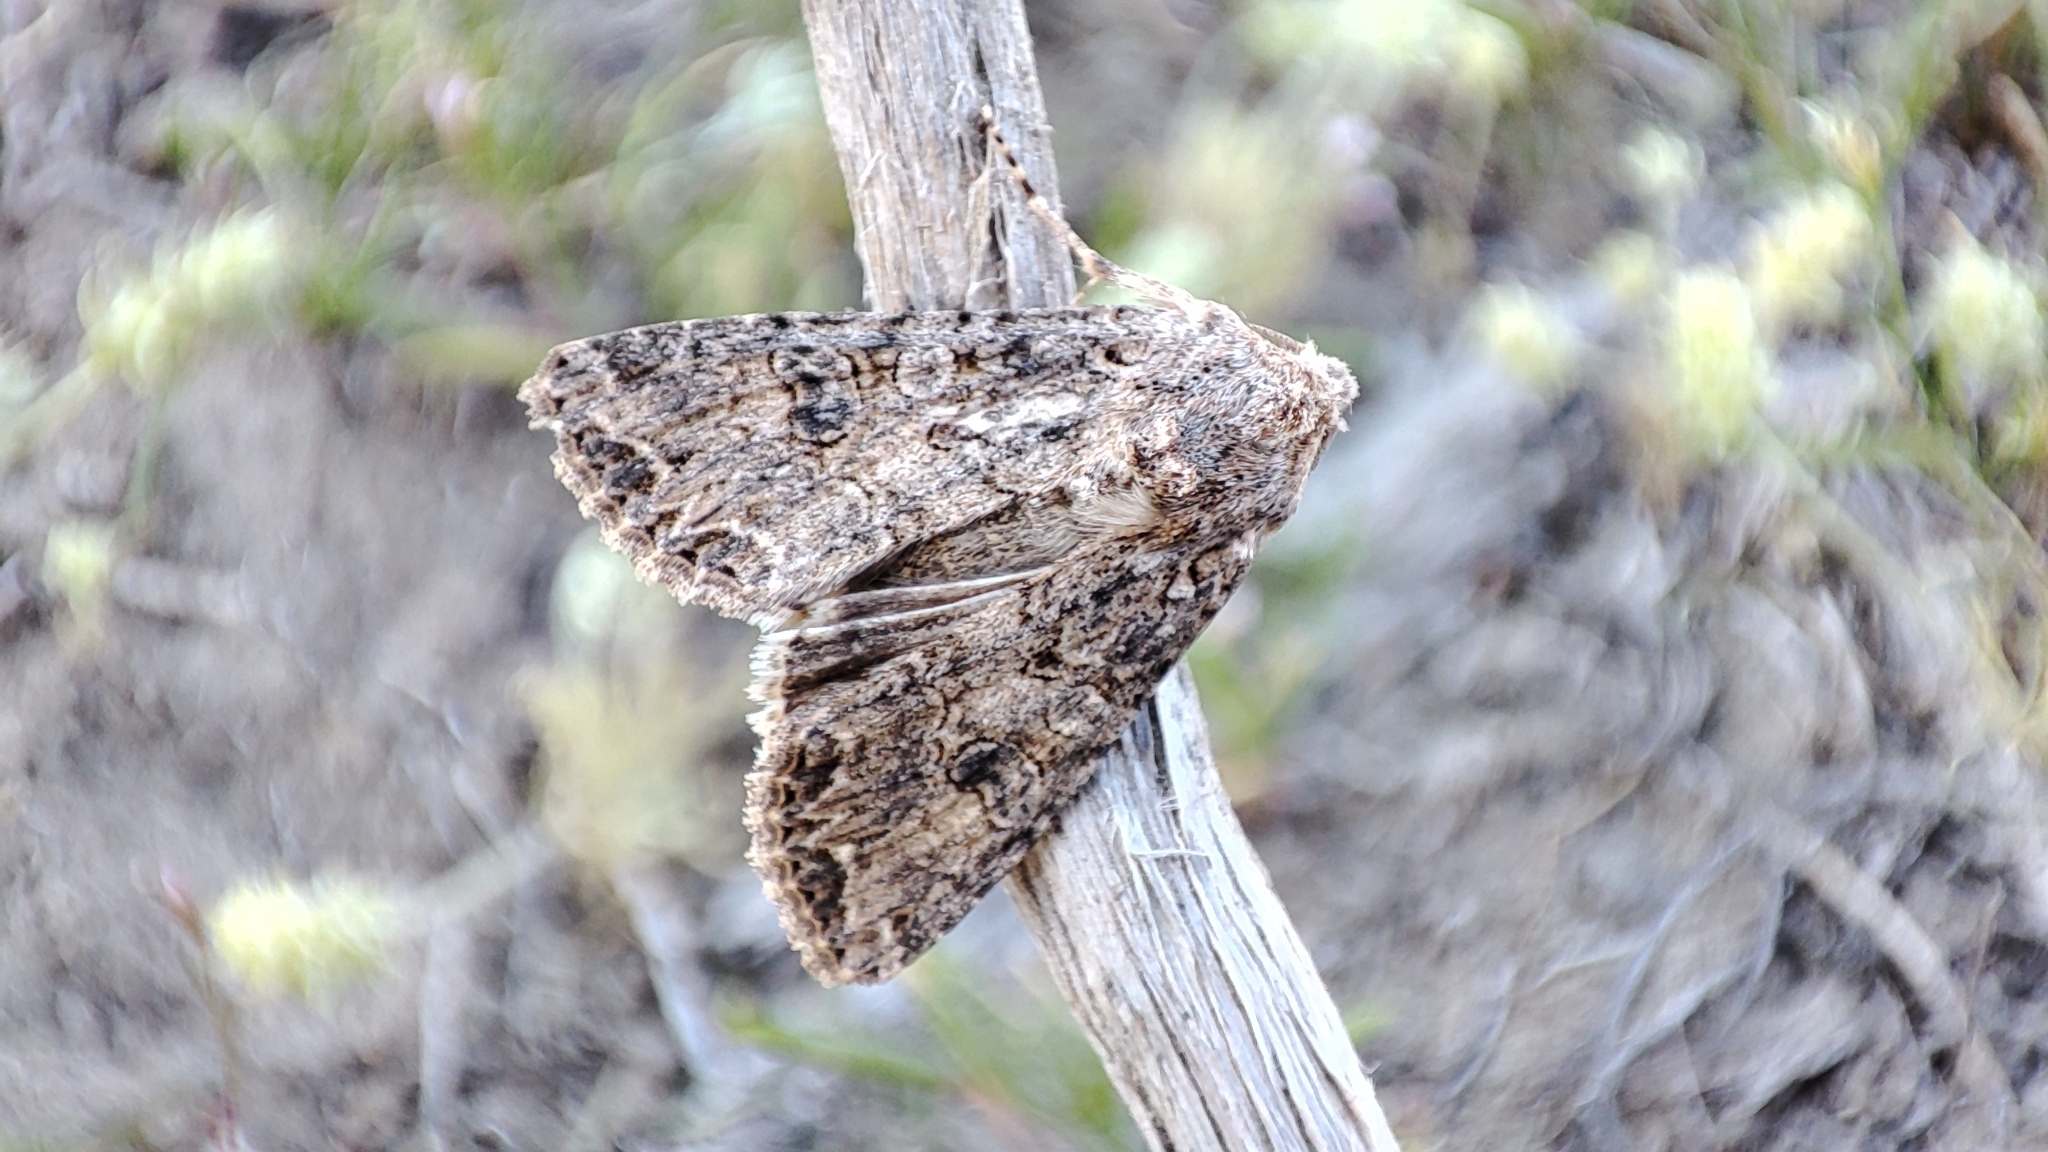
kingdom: Animalia
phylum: Arthropoda
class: Insecta
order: Lepidoptera
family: Noctuidae
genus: Anarta
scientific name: Anarta trifolii
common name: Clover cutworm moth
